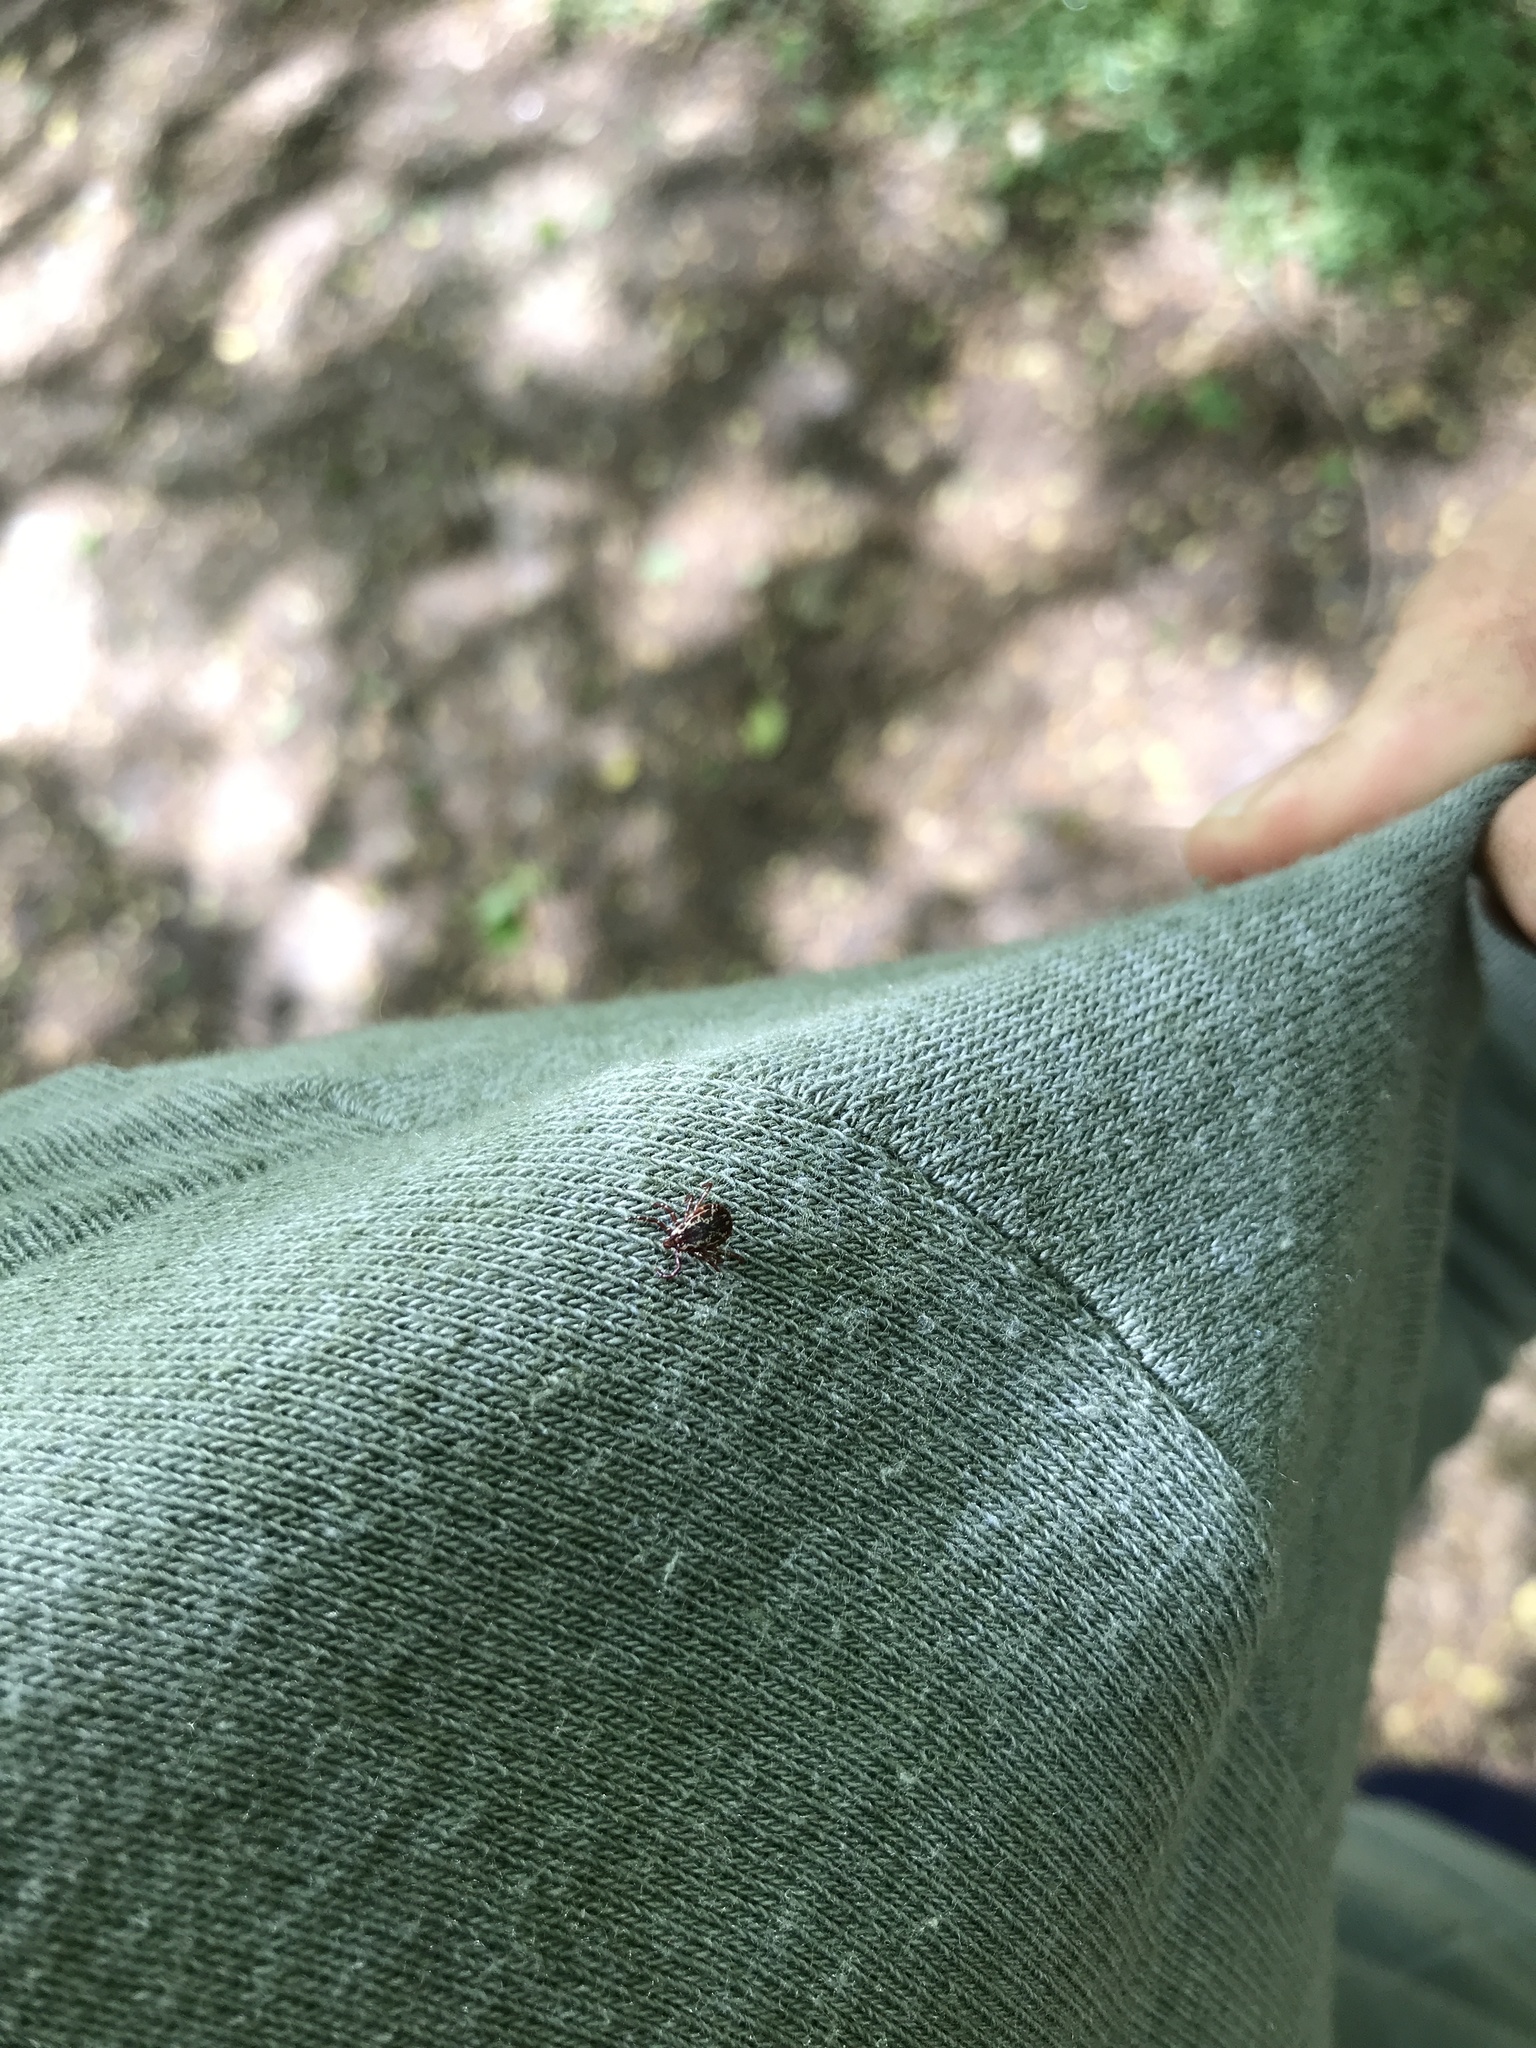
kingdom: Animalia
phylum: Arthropoda
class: Arachnida
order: Ixodida
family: Ixodidae
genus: Dermacentor
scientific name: Dermacentor variabilis
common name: American dog tick
